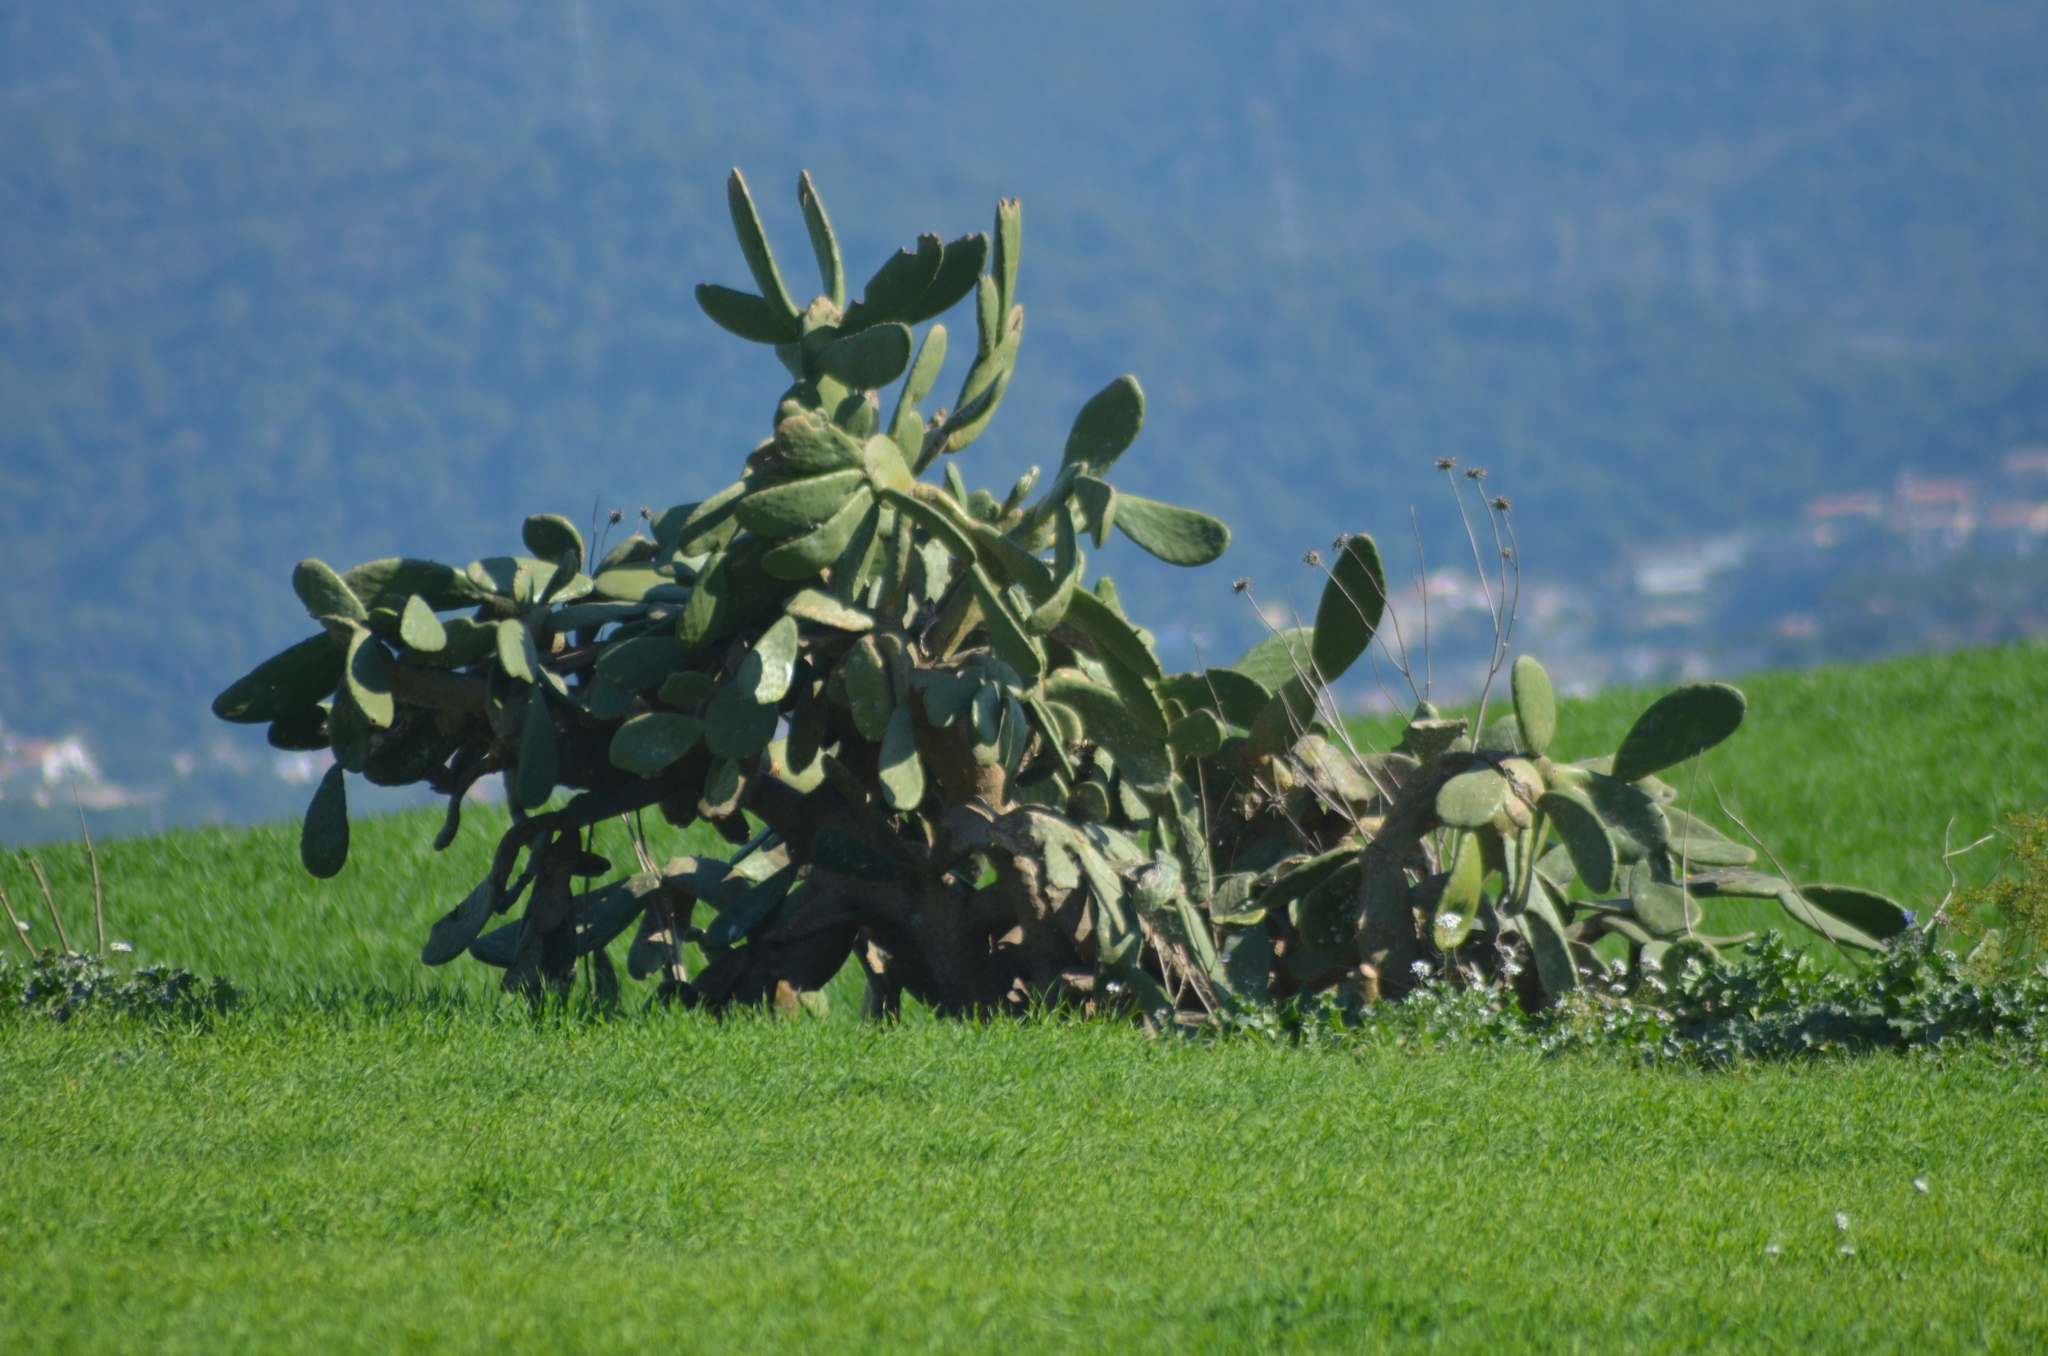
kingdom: Plantae
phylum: Tracheophyta
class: Magnoliopsida
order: Caryophyllales
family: Cactaceae
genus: Opuntia
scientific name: Opuntia ficus-indica
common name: Barbary fig
